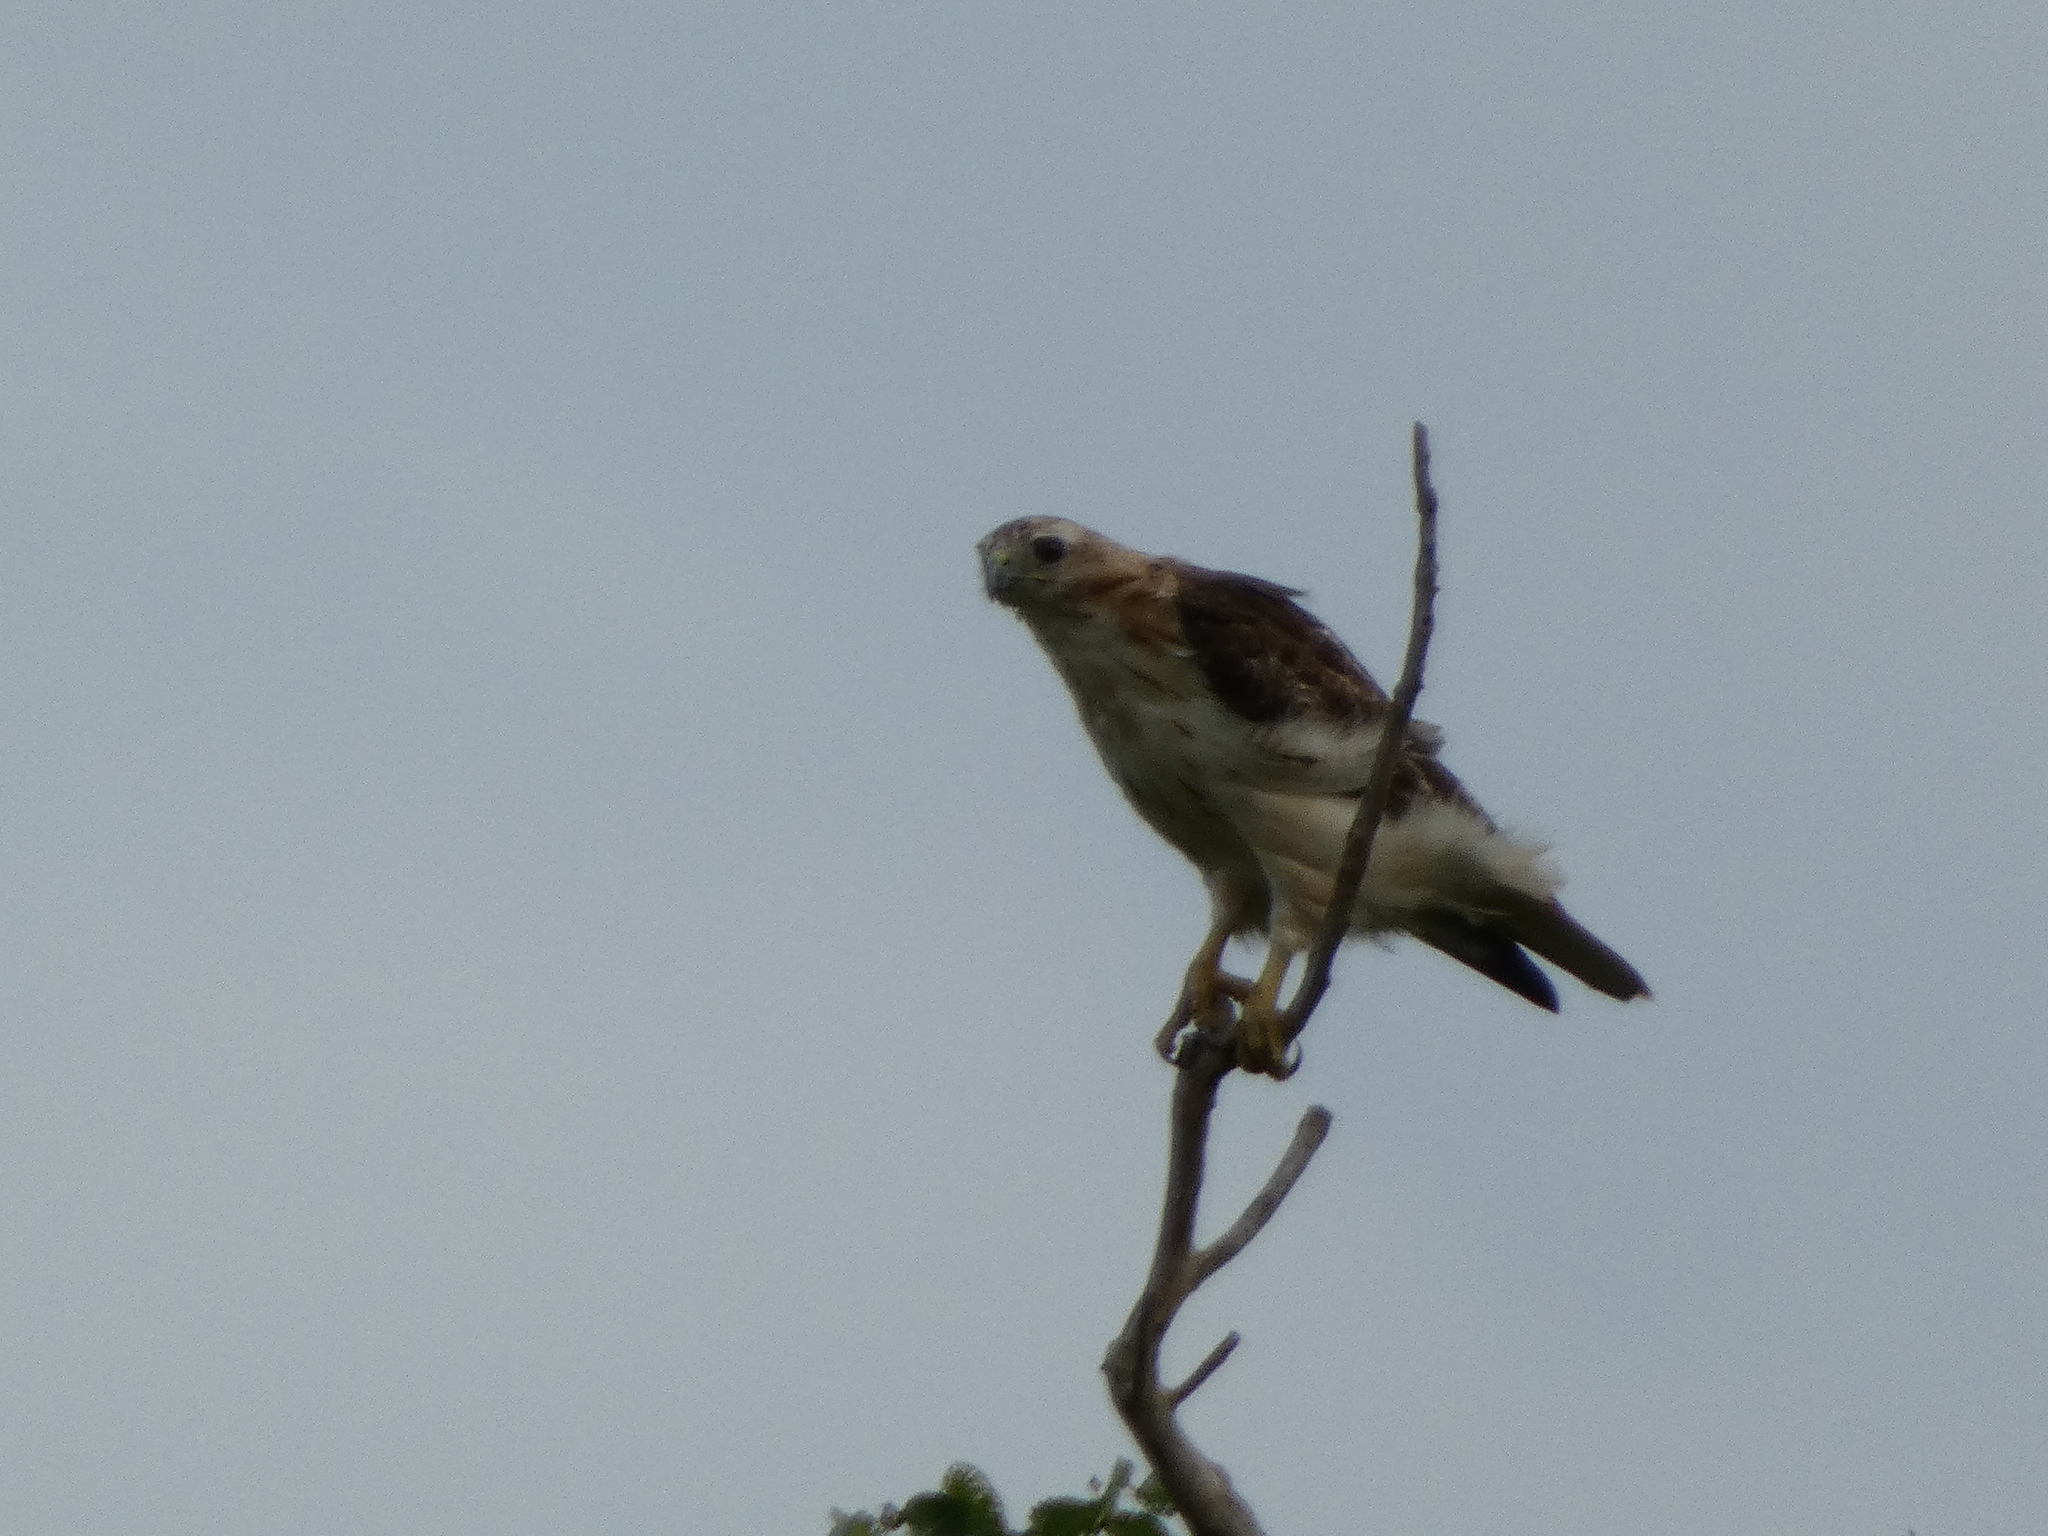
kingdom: Animalia
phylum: Chordata
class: Aves
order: Accipitriformes
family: Accipitridae
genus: Buteo
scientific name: Buteo jamaicensis
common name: Red-tailed hawk
